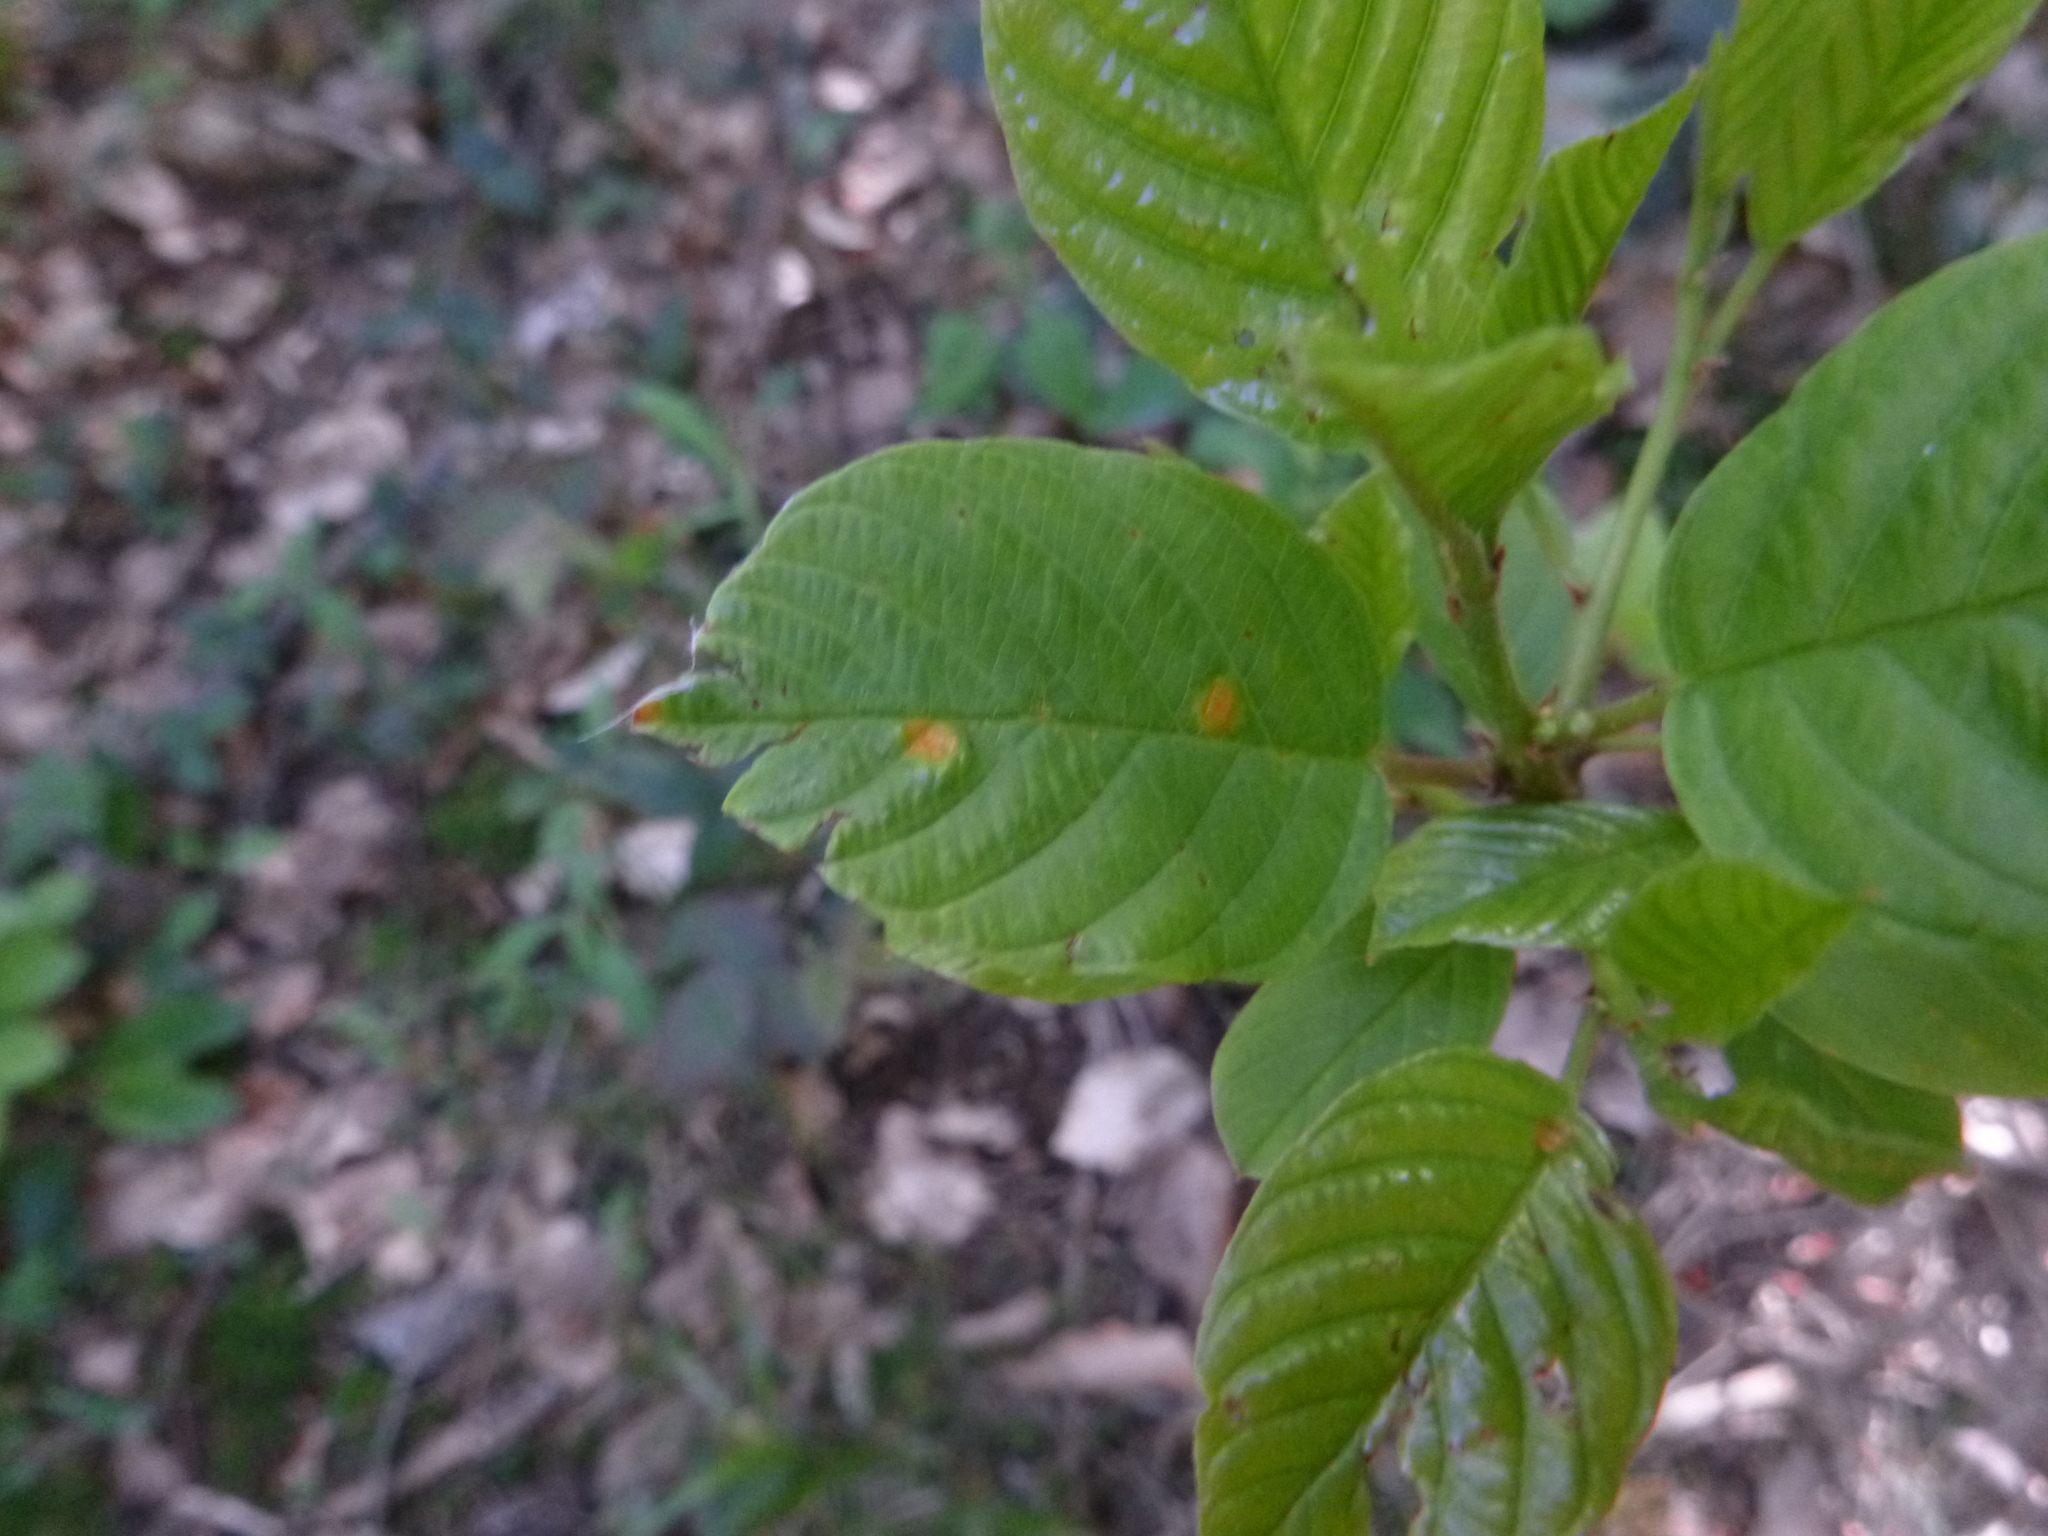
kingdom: Fungi
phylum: Basidiomycota
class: Pucciniomycetes
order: Pucciniales
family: Pucciniaceae
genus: Puccinia
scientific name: Puccinia coronata
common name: Crown rust
